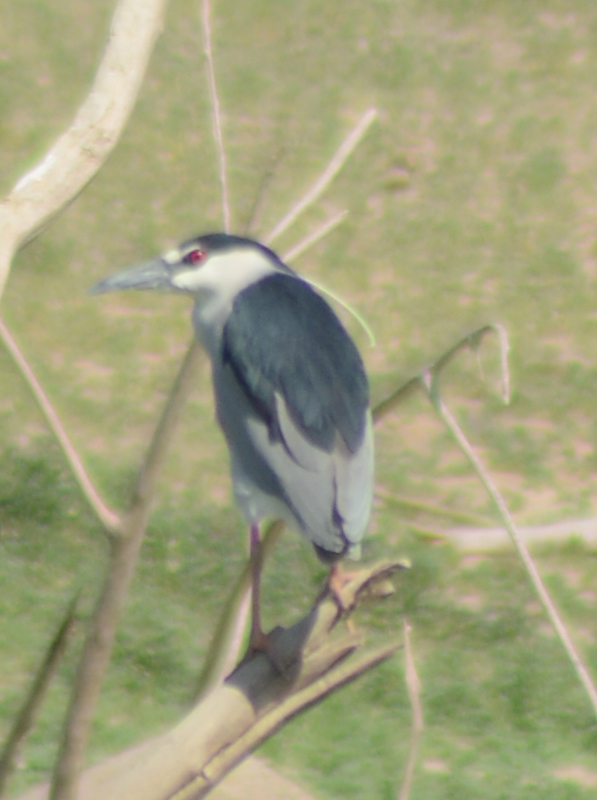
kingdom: Animalia
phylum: Chordata
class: Aves
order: Pelecaniformes
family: Ardeidae
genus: Nycticorax
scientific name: Nycticorax nycticorax
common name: Black-crowned night heron
